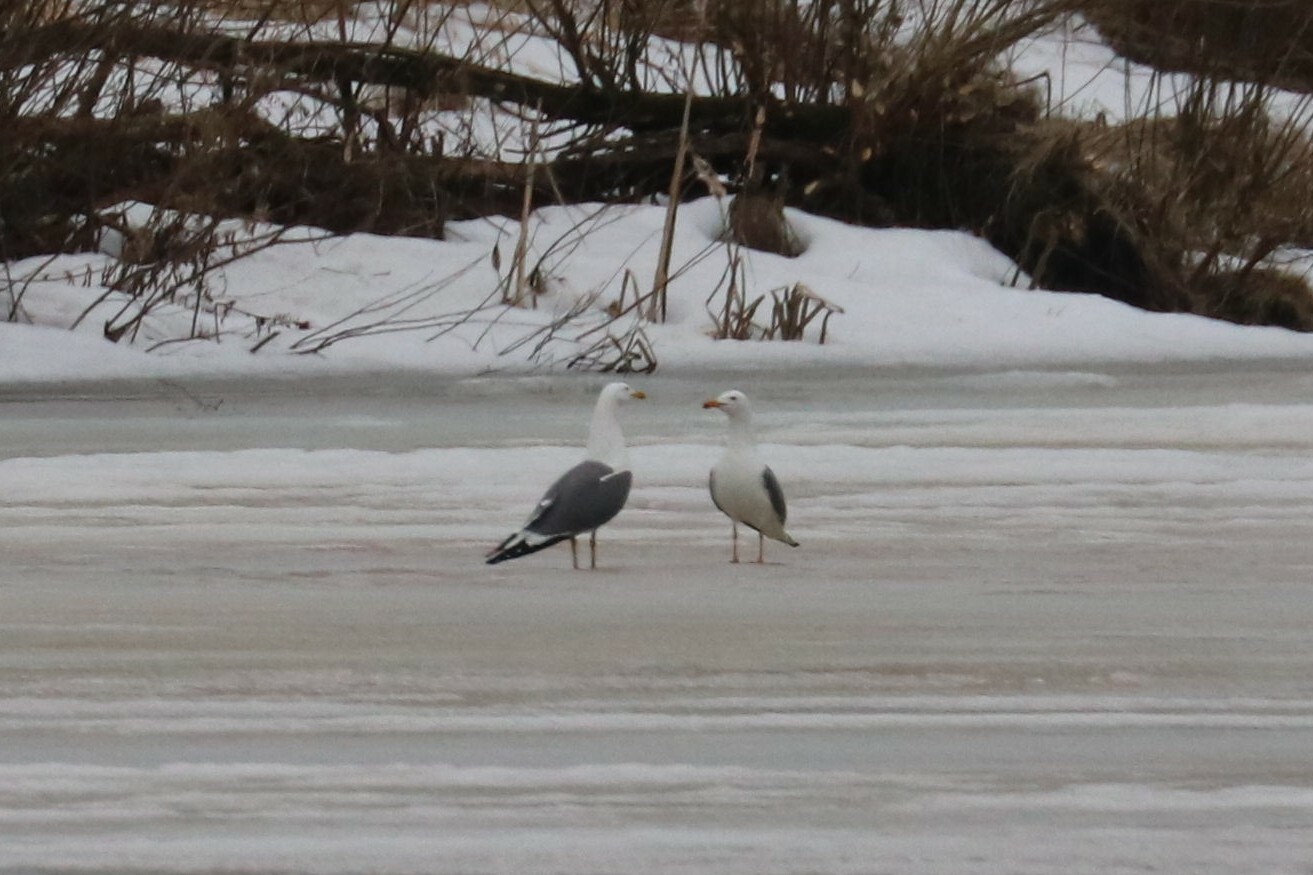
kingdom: Animalia
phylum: Chordata
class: Aves
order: Charadriiformes
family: Laridae
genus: Larus
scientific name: Larus fuscus
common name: Lesser black-backed gull
